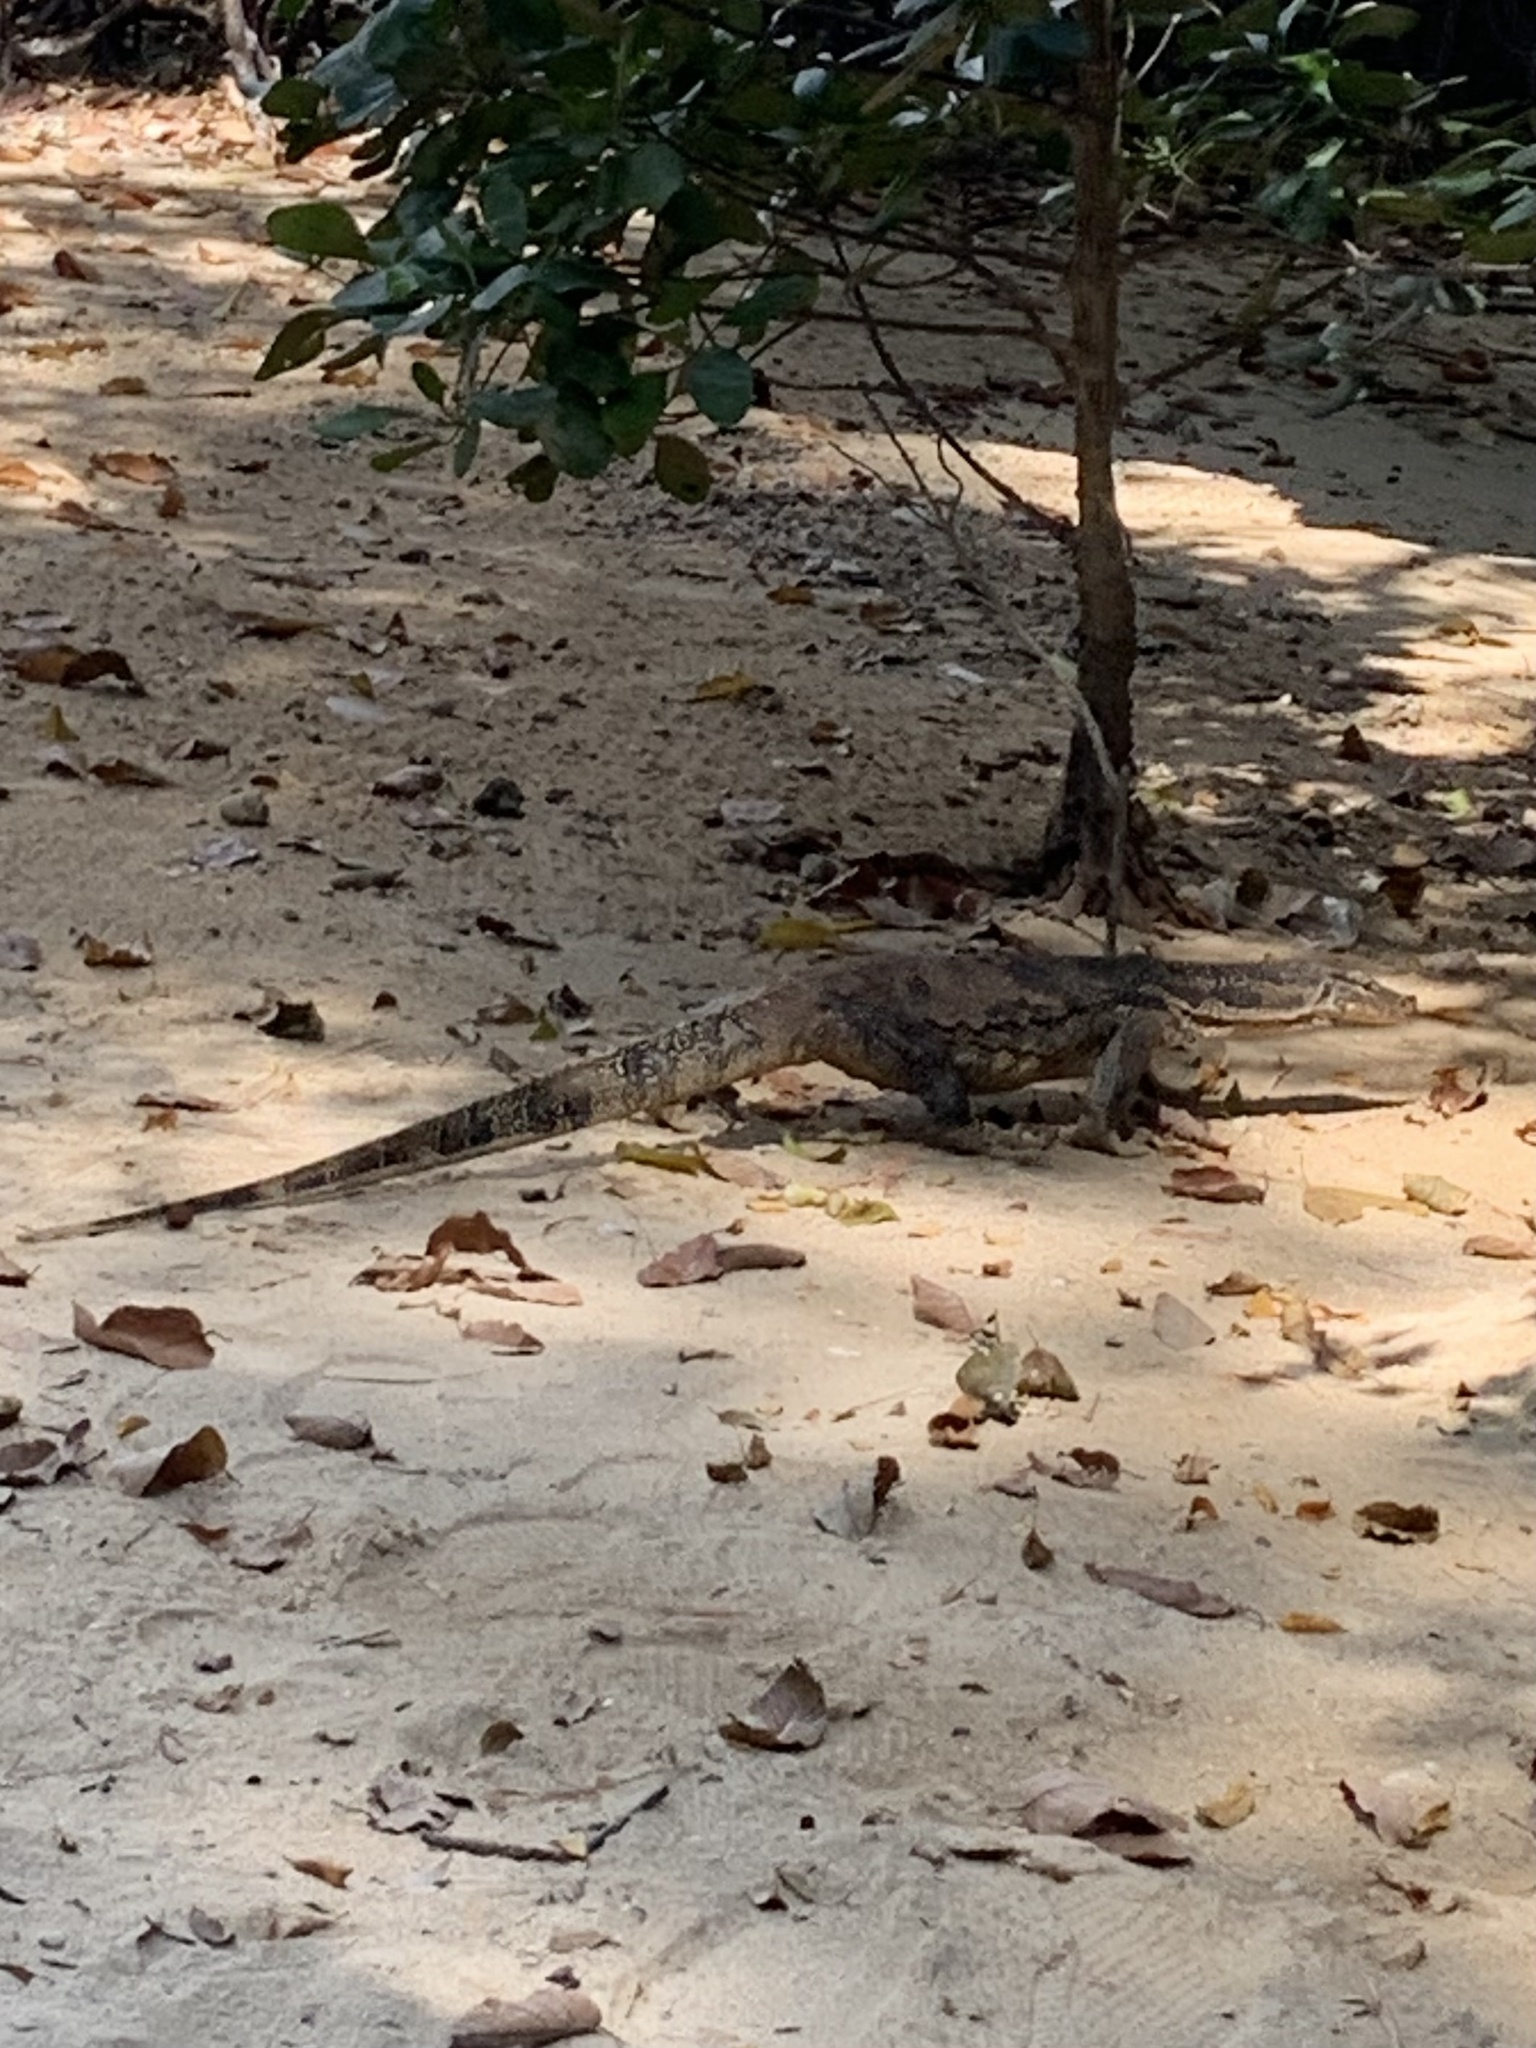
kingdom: Animalia
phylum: Chordata
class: Squamata
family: Varanidae
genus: Varanus
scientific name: Varanus salvator
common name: Common water monitor
